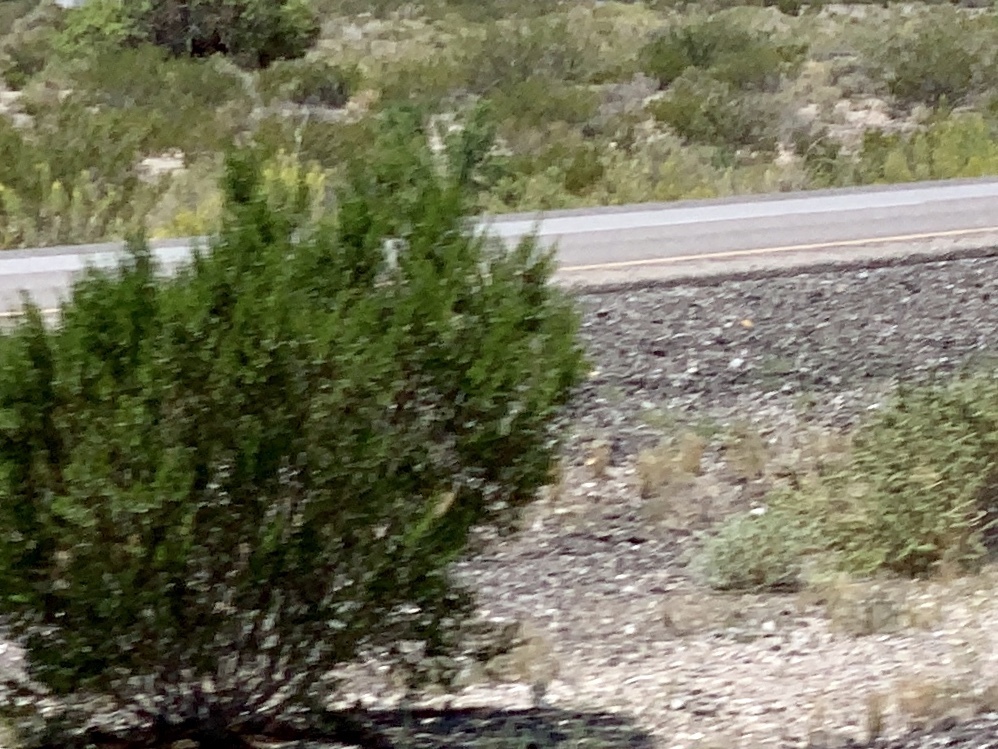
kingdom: Plantae
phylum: Tracheophyta
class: Magnoliopsida
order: Zygophyllales
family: Zygophyllaceae
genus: Larrea
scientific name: Larrea tridentata
